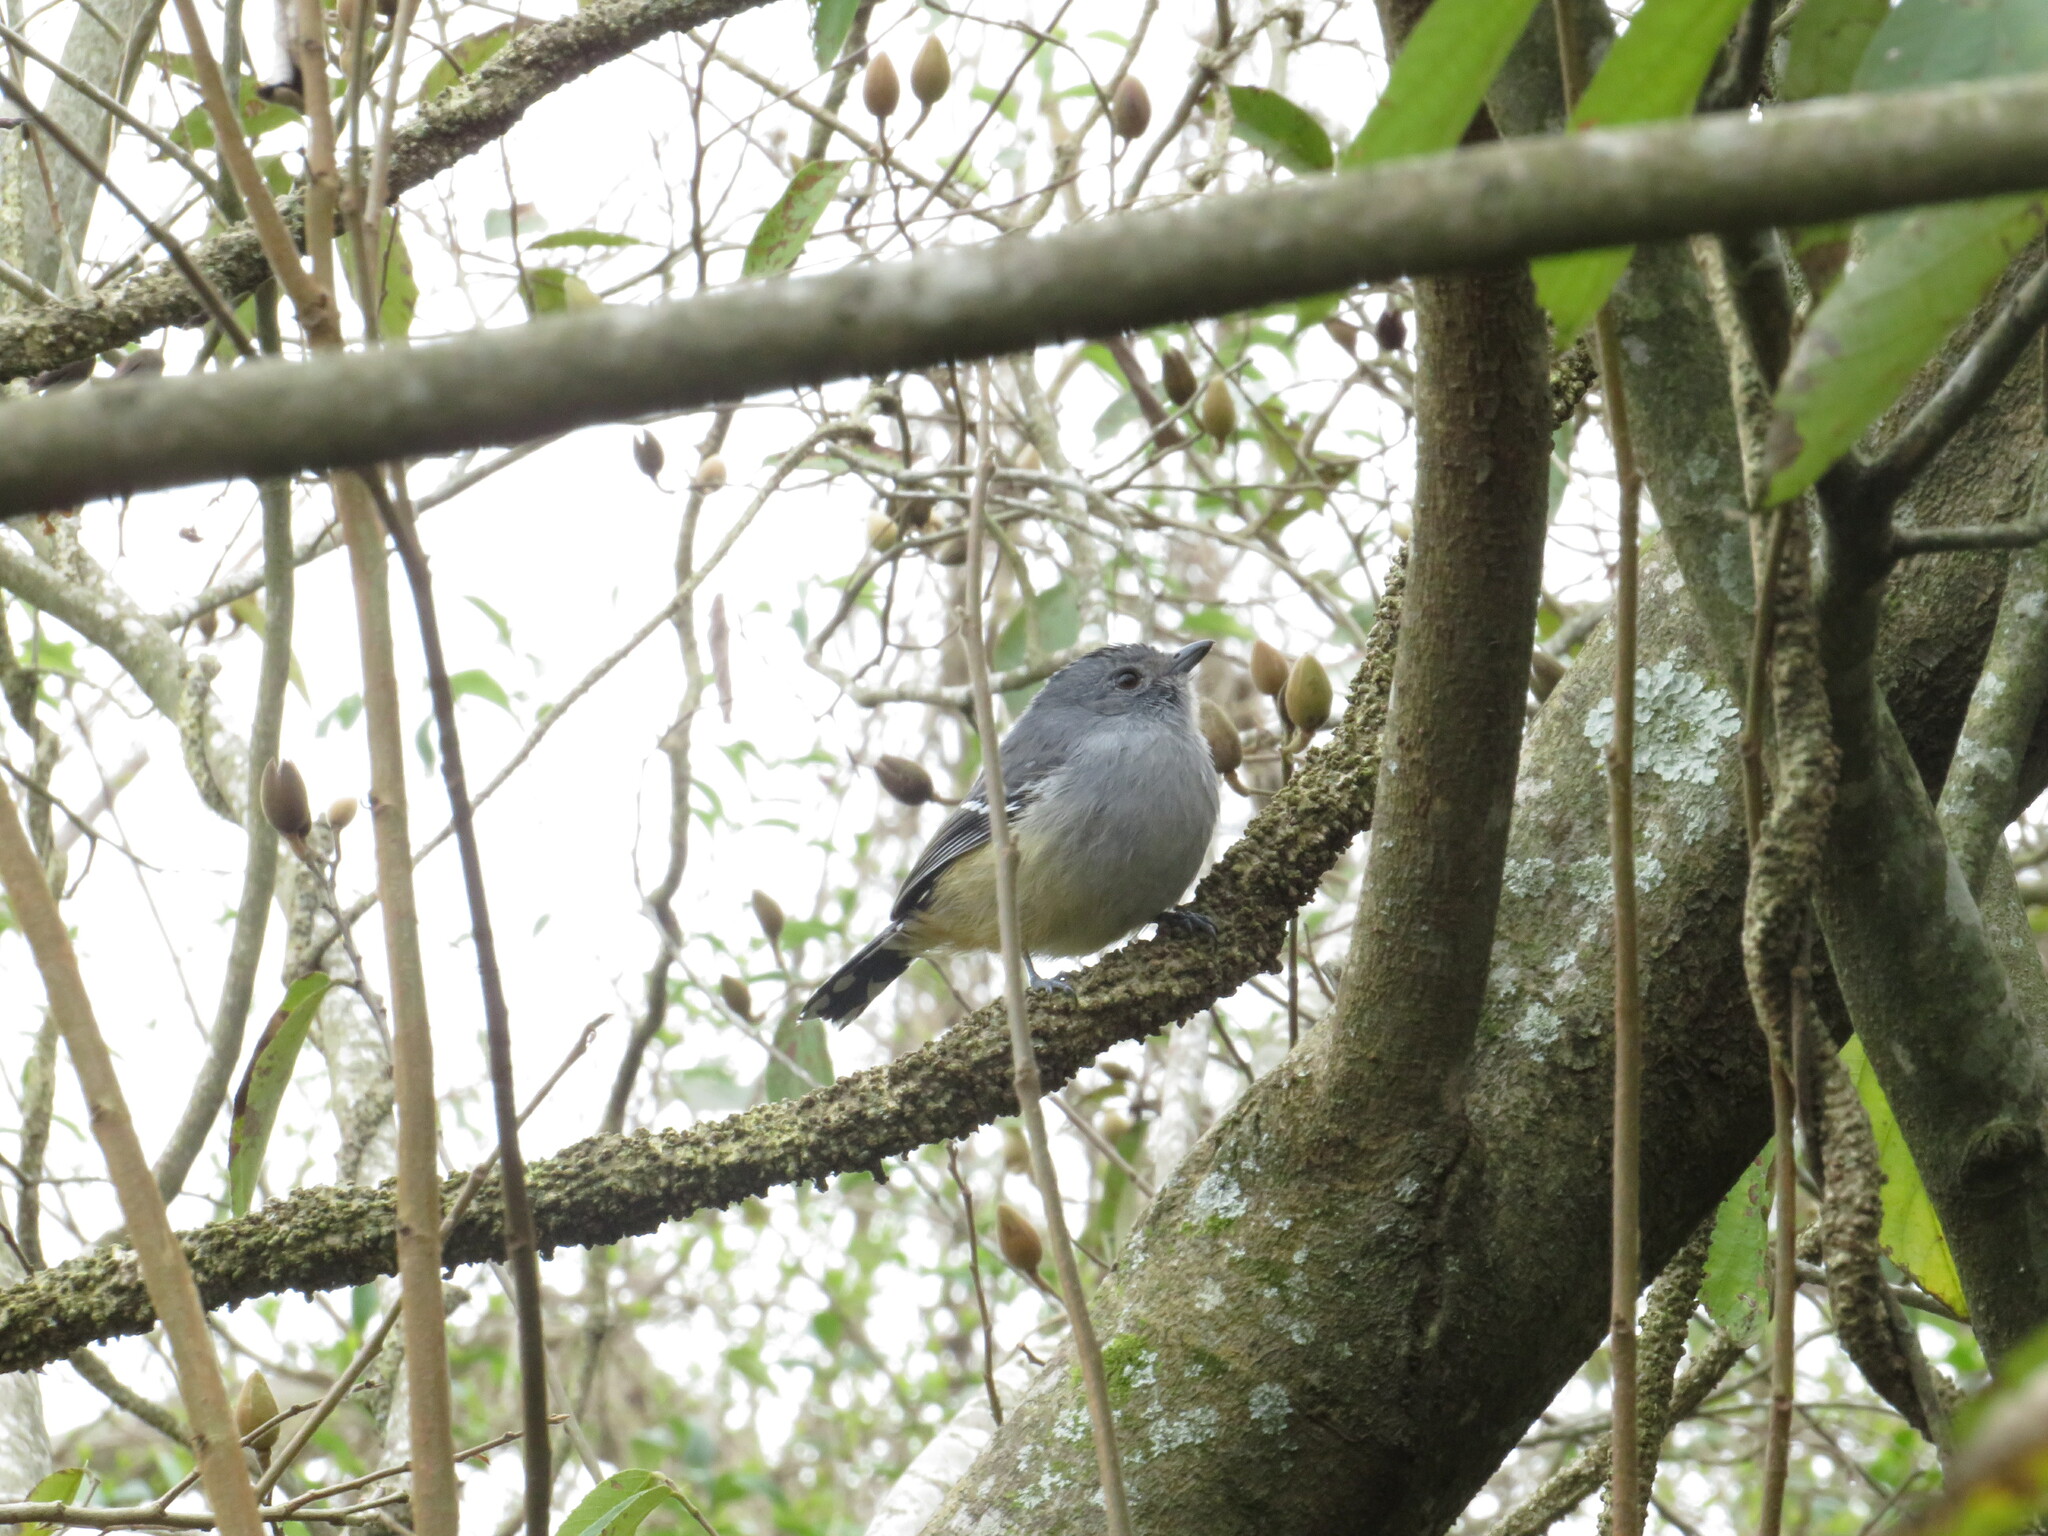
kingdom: Animalia
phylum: Chordata
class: Aves
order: Passeriformes
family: Thamnophilidae
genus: Thamnophilus
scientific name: Thamnophilus caerulescens
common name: Variable antshrike
